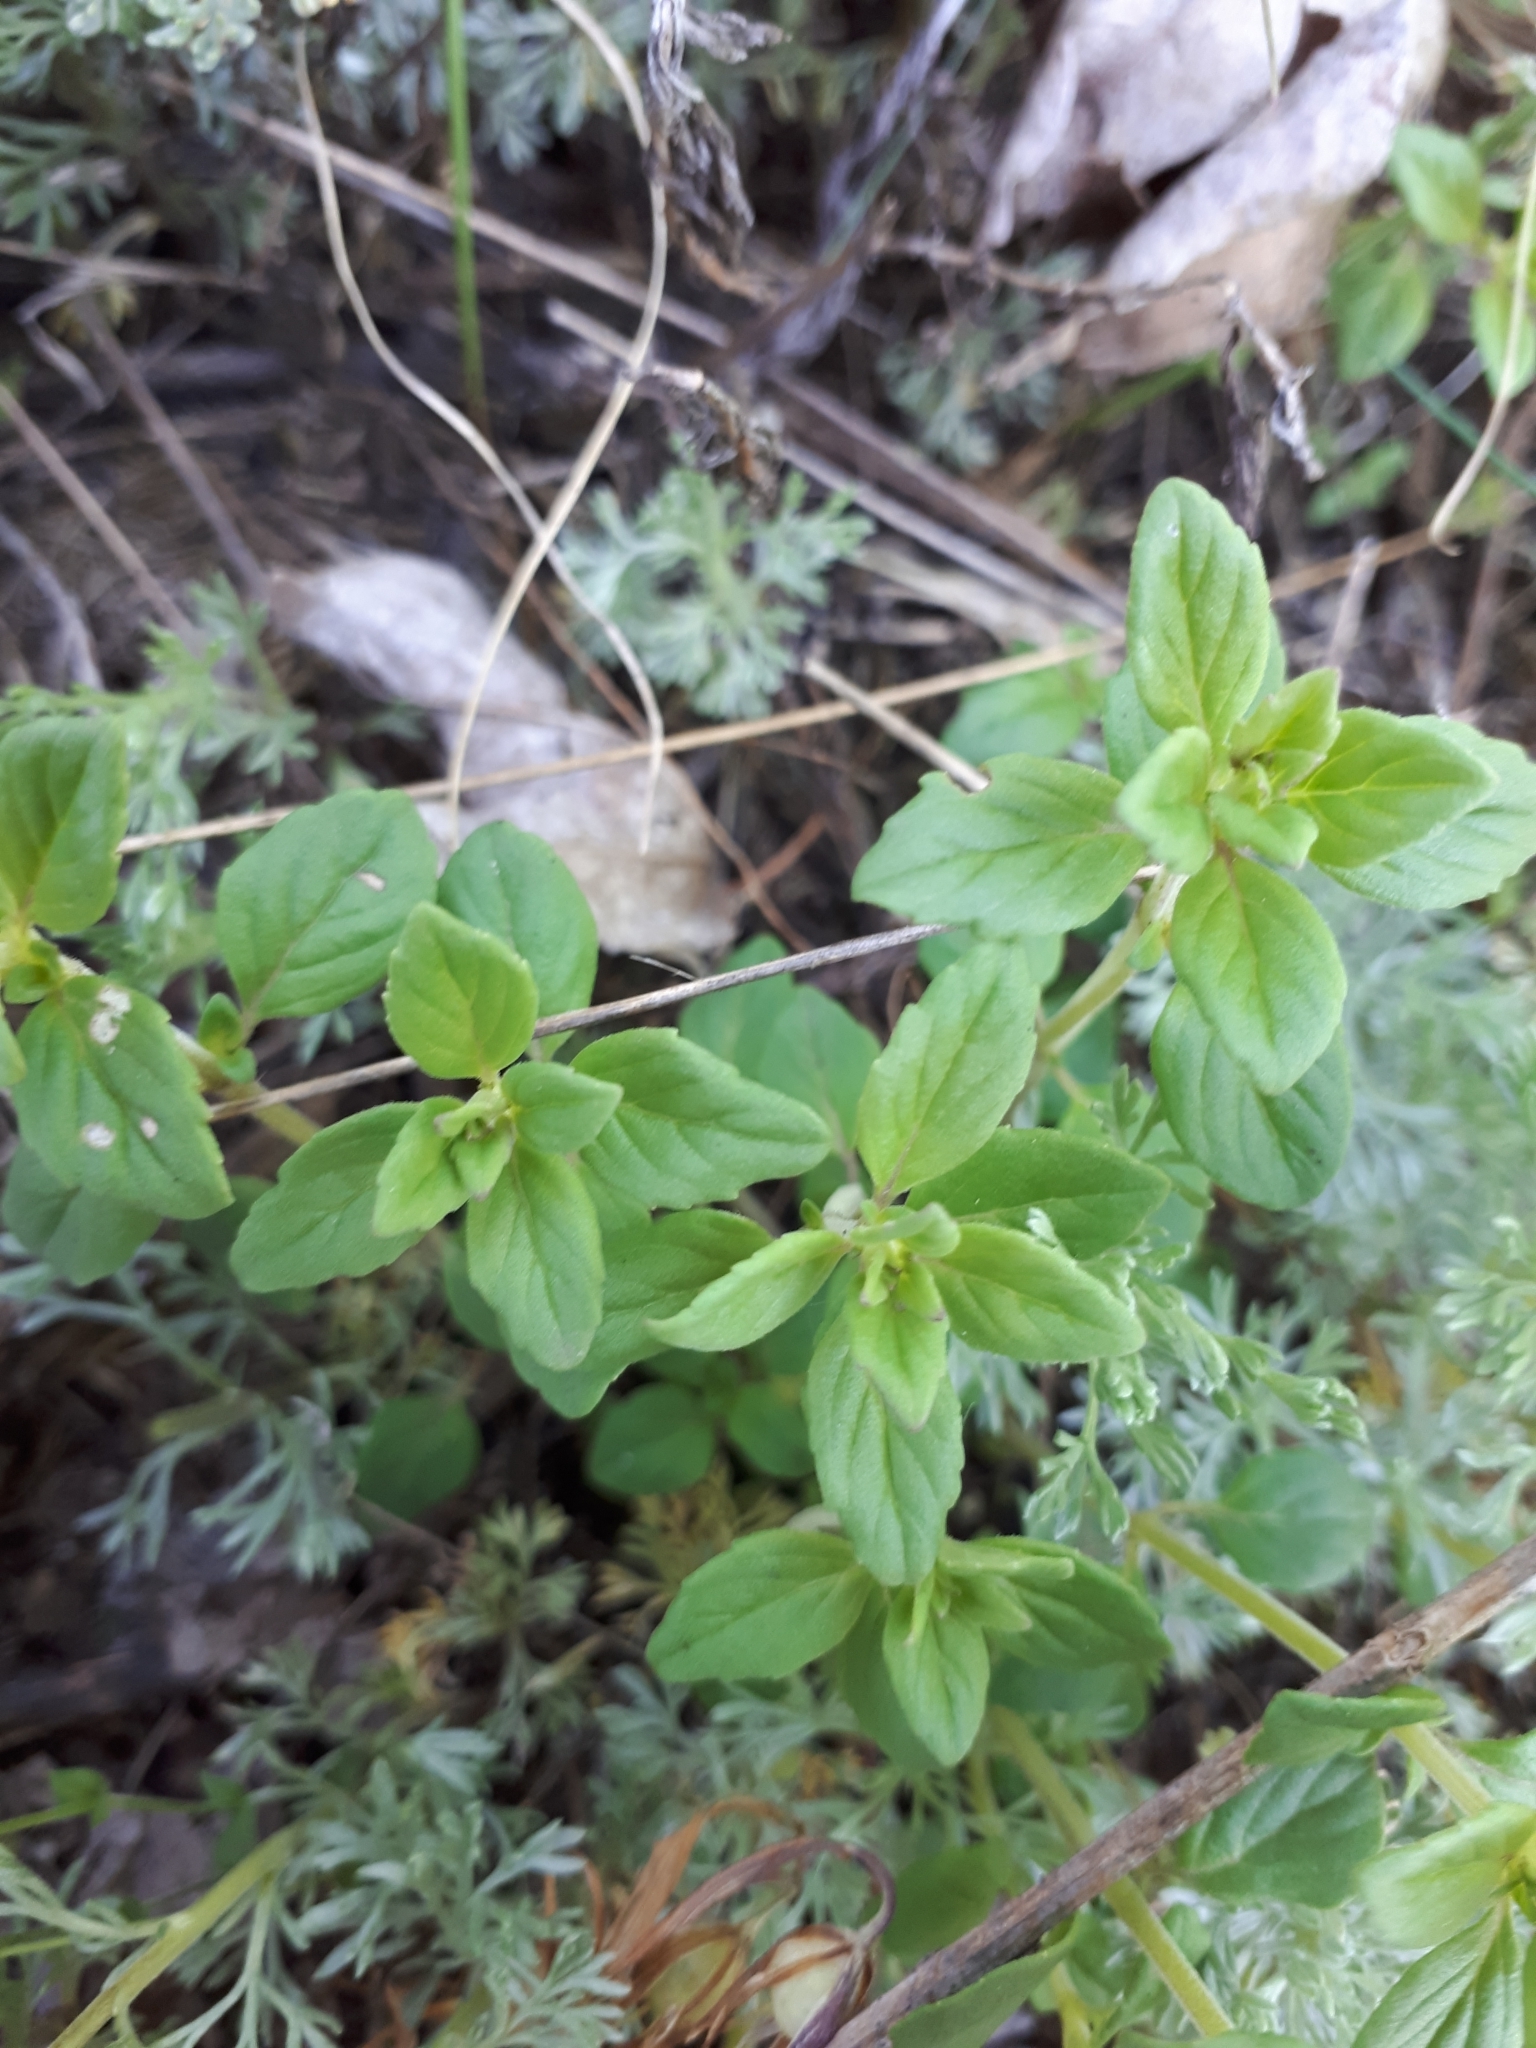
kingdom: Plantae
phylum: Tracheophyta
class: Magnoliopsida
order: Lamiales
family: Lamiaceae
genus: Clinopodium
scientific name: Clinopodium acinos
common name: Basil thyme
